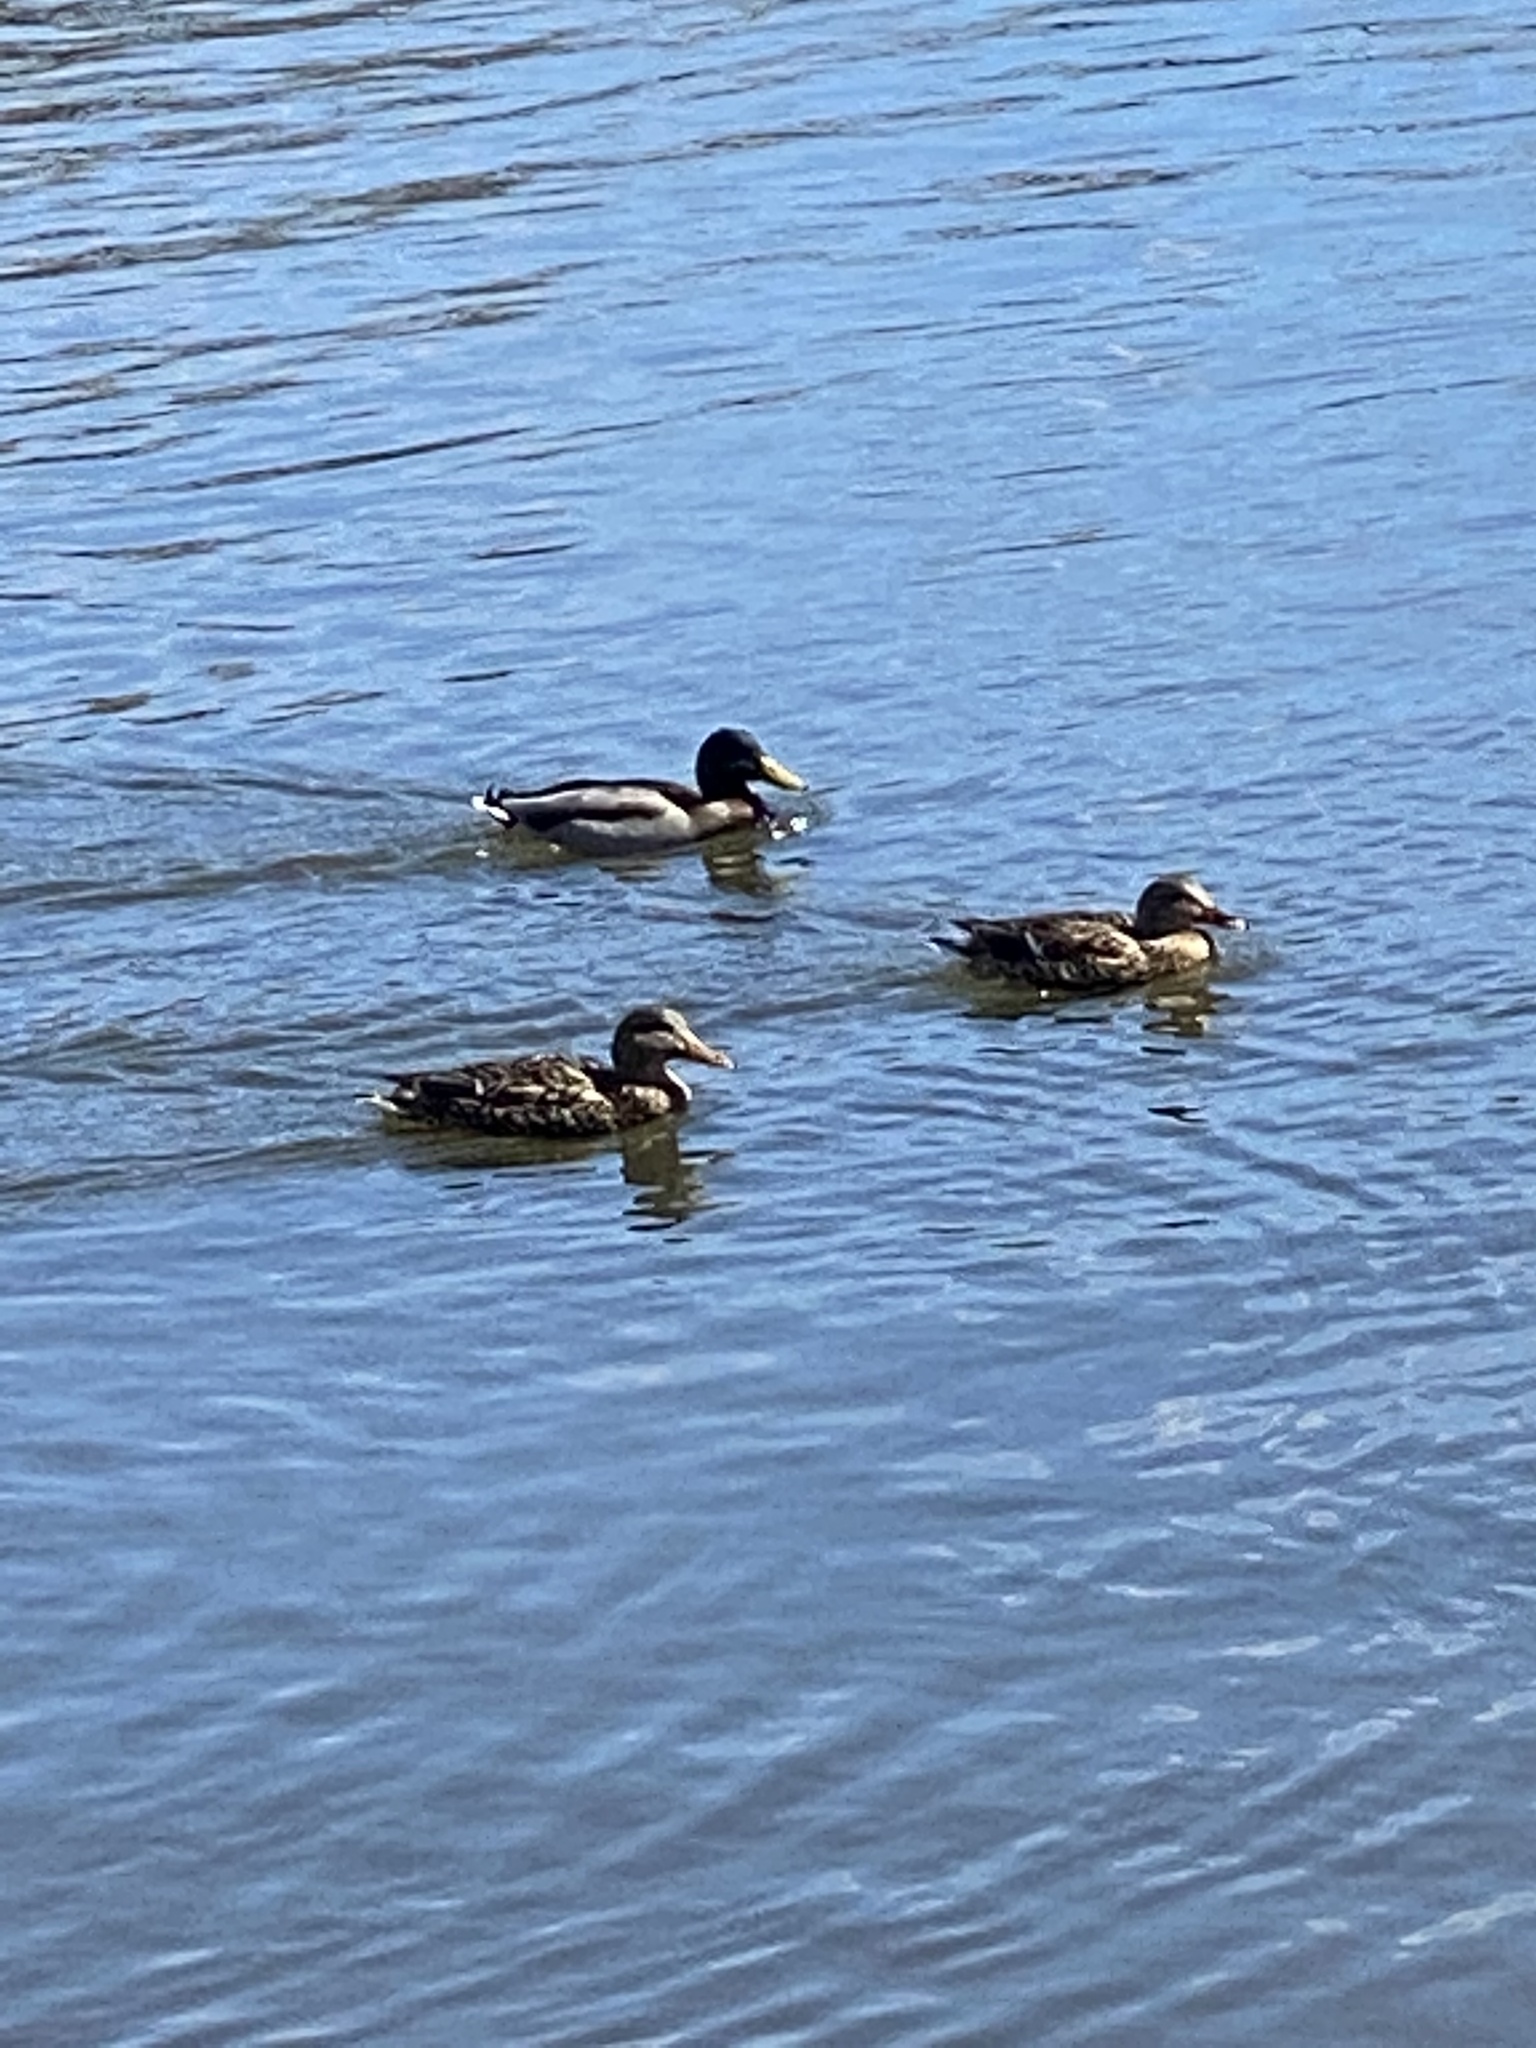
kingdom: Animalia
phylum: Chordata
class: Aves
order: Anseriformes
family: Anatidae
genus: Anas
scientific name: Anas platyrhynchos
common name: Mallard
